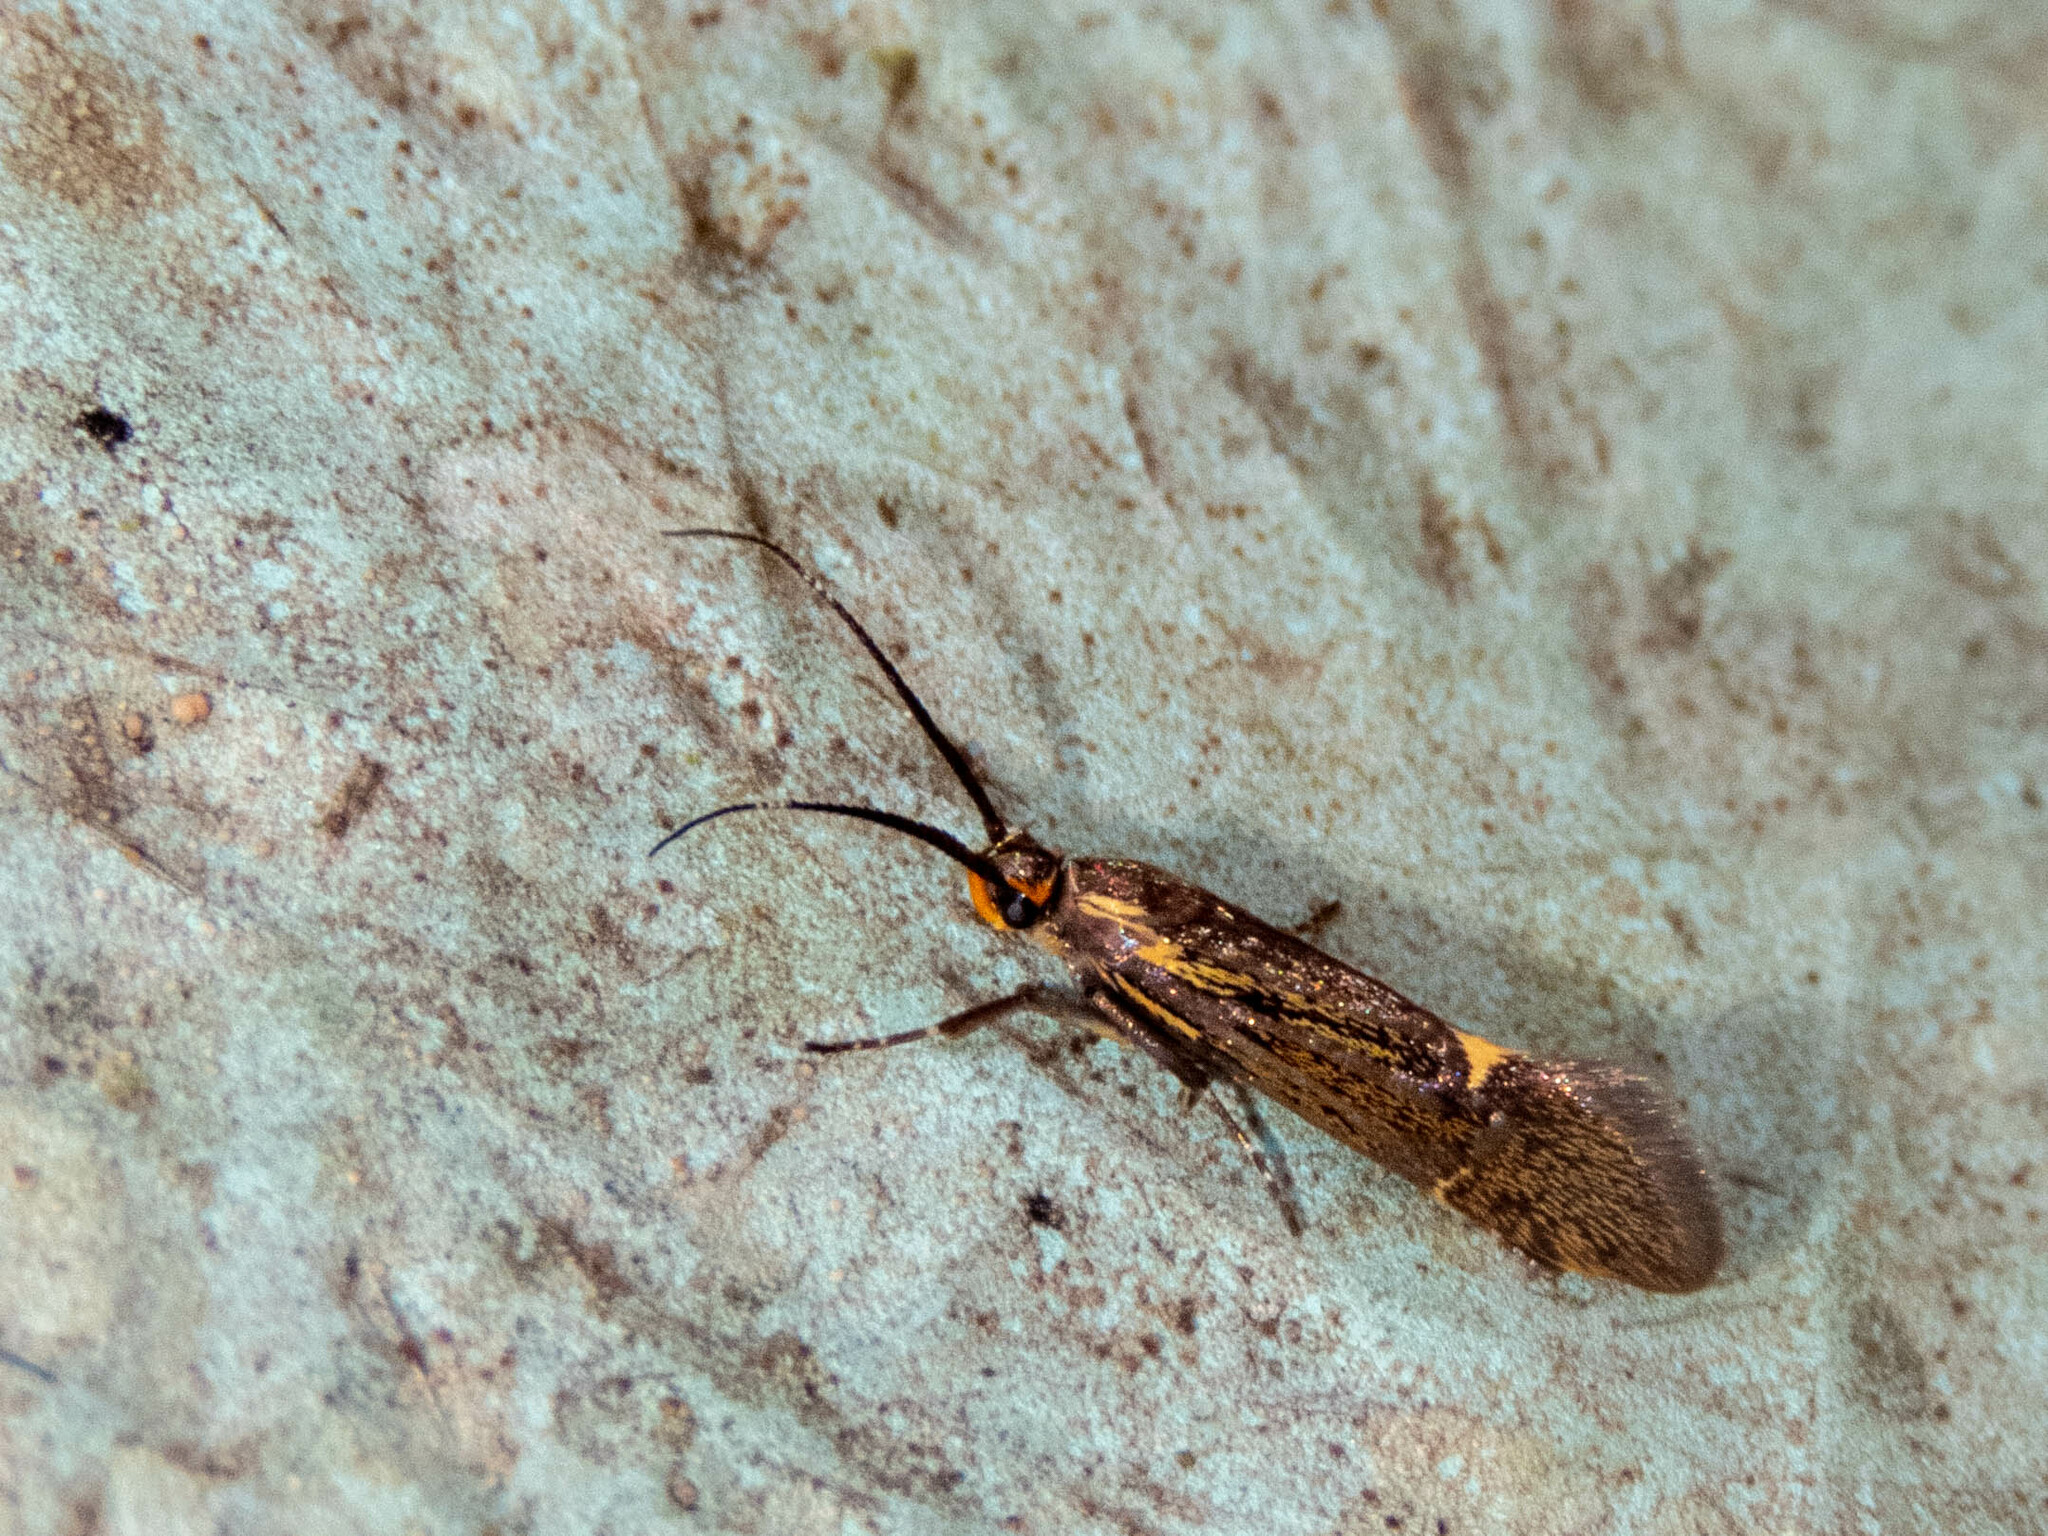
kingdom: Animalia
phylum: Arthropoda
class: Insecta
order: Lepidoptera
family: Oecophoridae
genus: Dafa
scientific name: Dafa Esperia sulphurella
